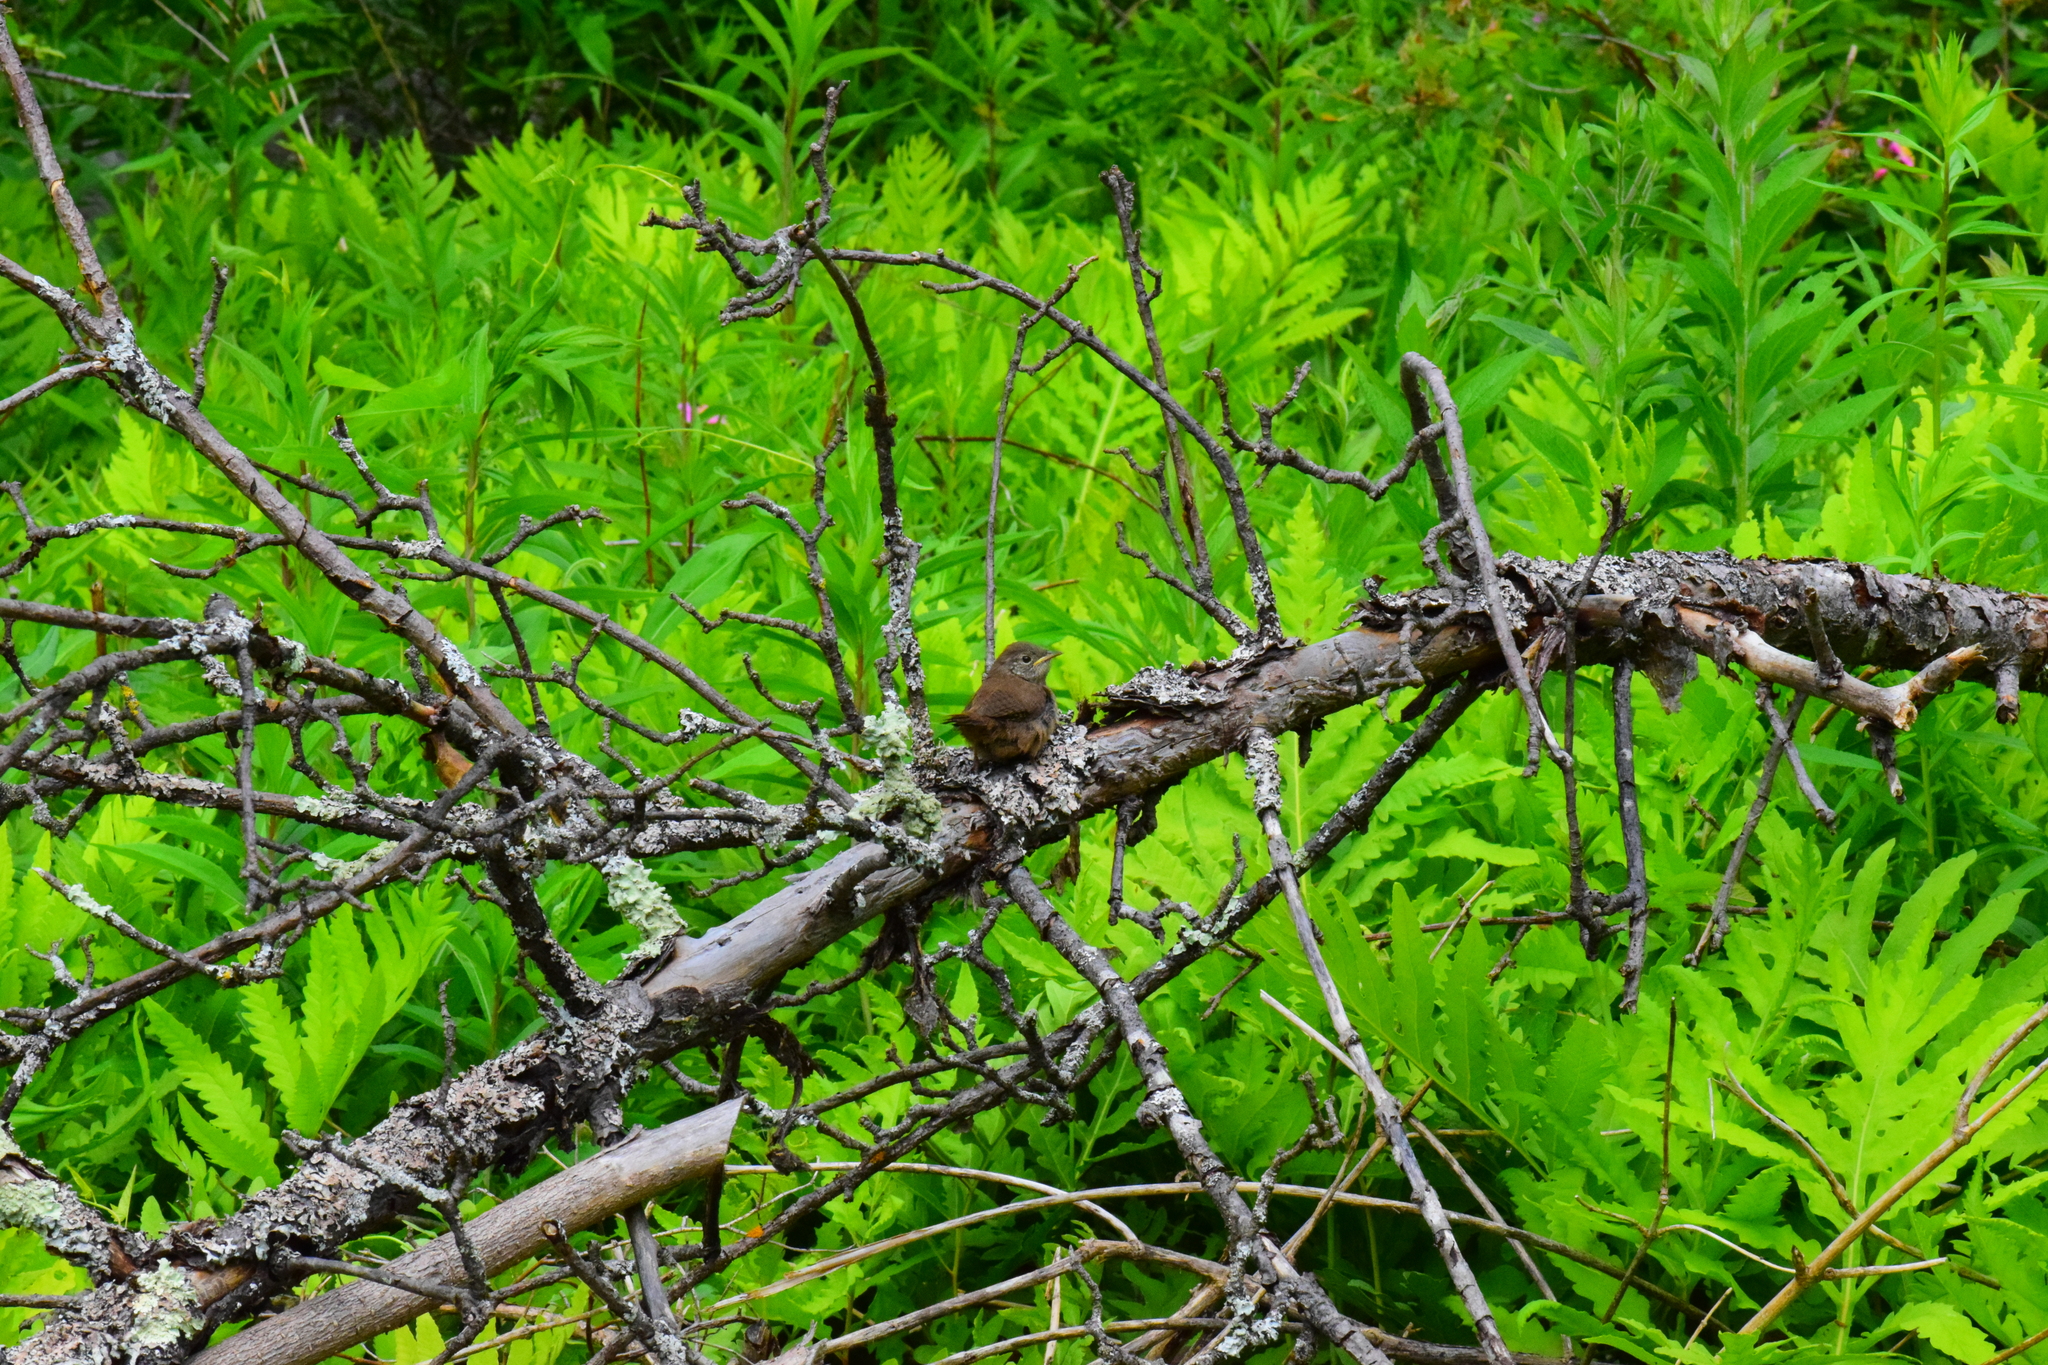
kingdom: Animalia
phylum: Chordata
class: Aves
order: Passeriformes
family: Troglodytidae
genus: Troglodytes
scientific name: Troglodytes aedon
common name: House wren
